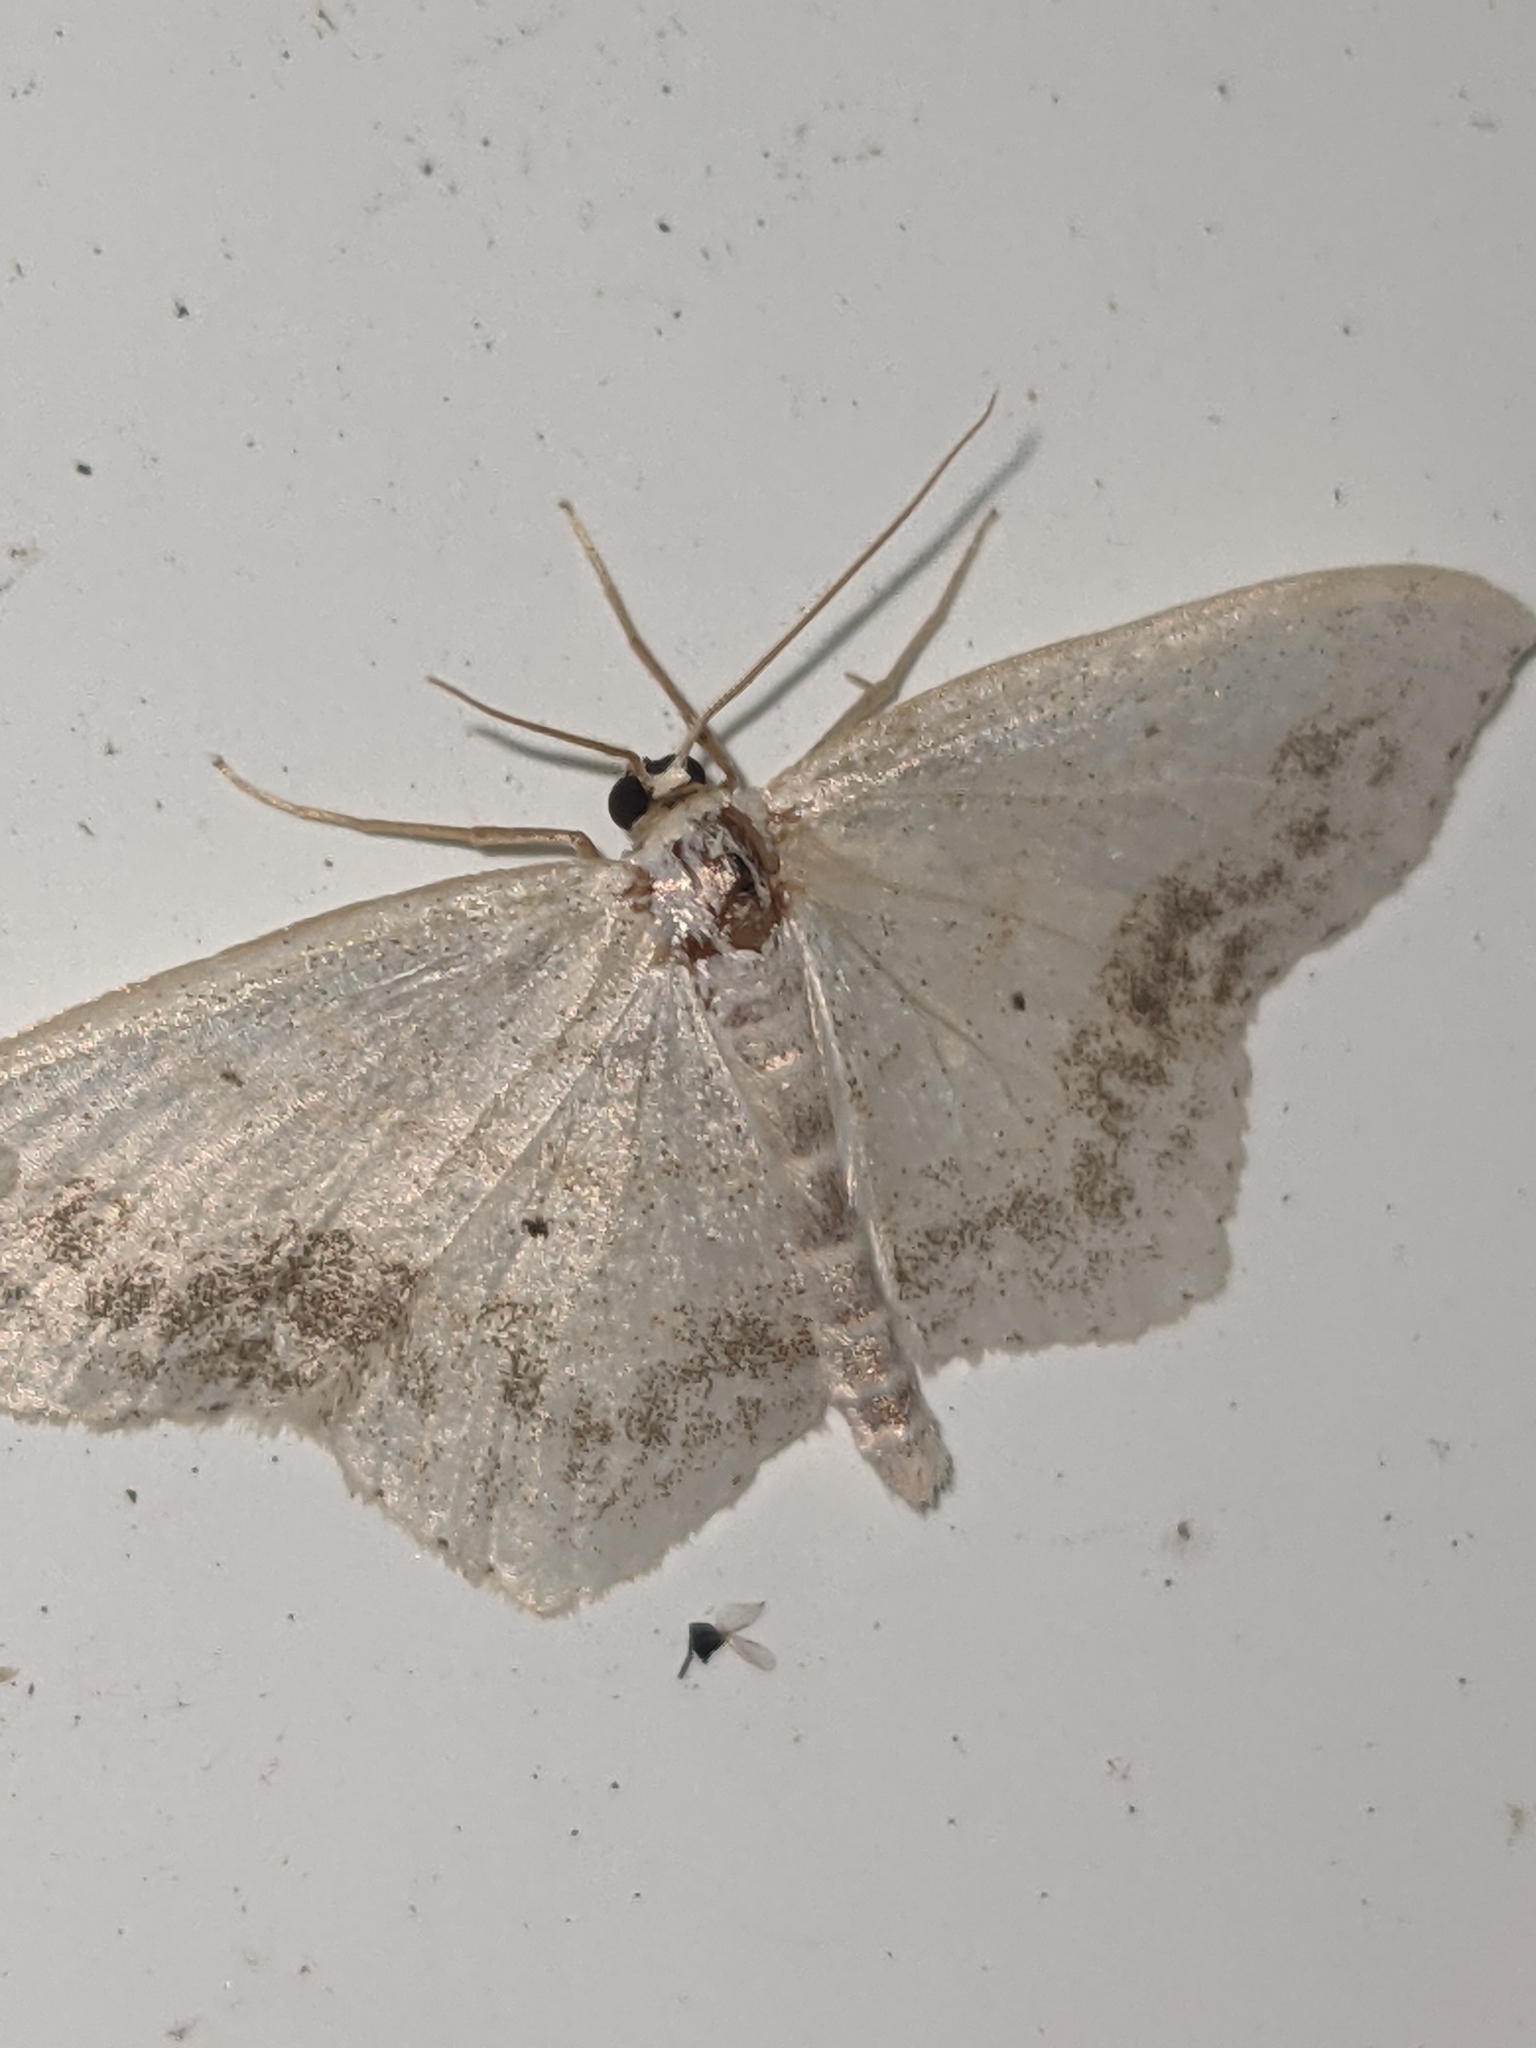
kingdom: Animalia
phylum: Arthropoda
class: Insecta
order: Lepidoptera
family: Geometridae
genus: Scopula
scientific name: Scopula limboundata
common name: Large lace border
